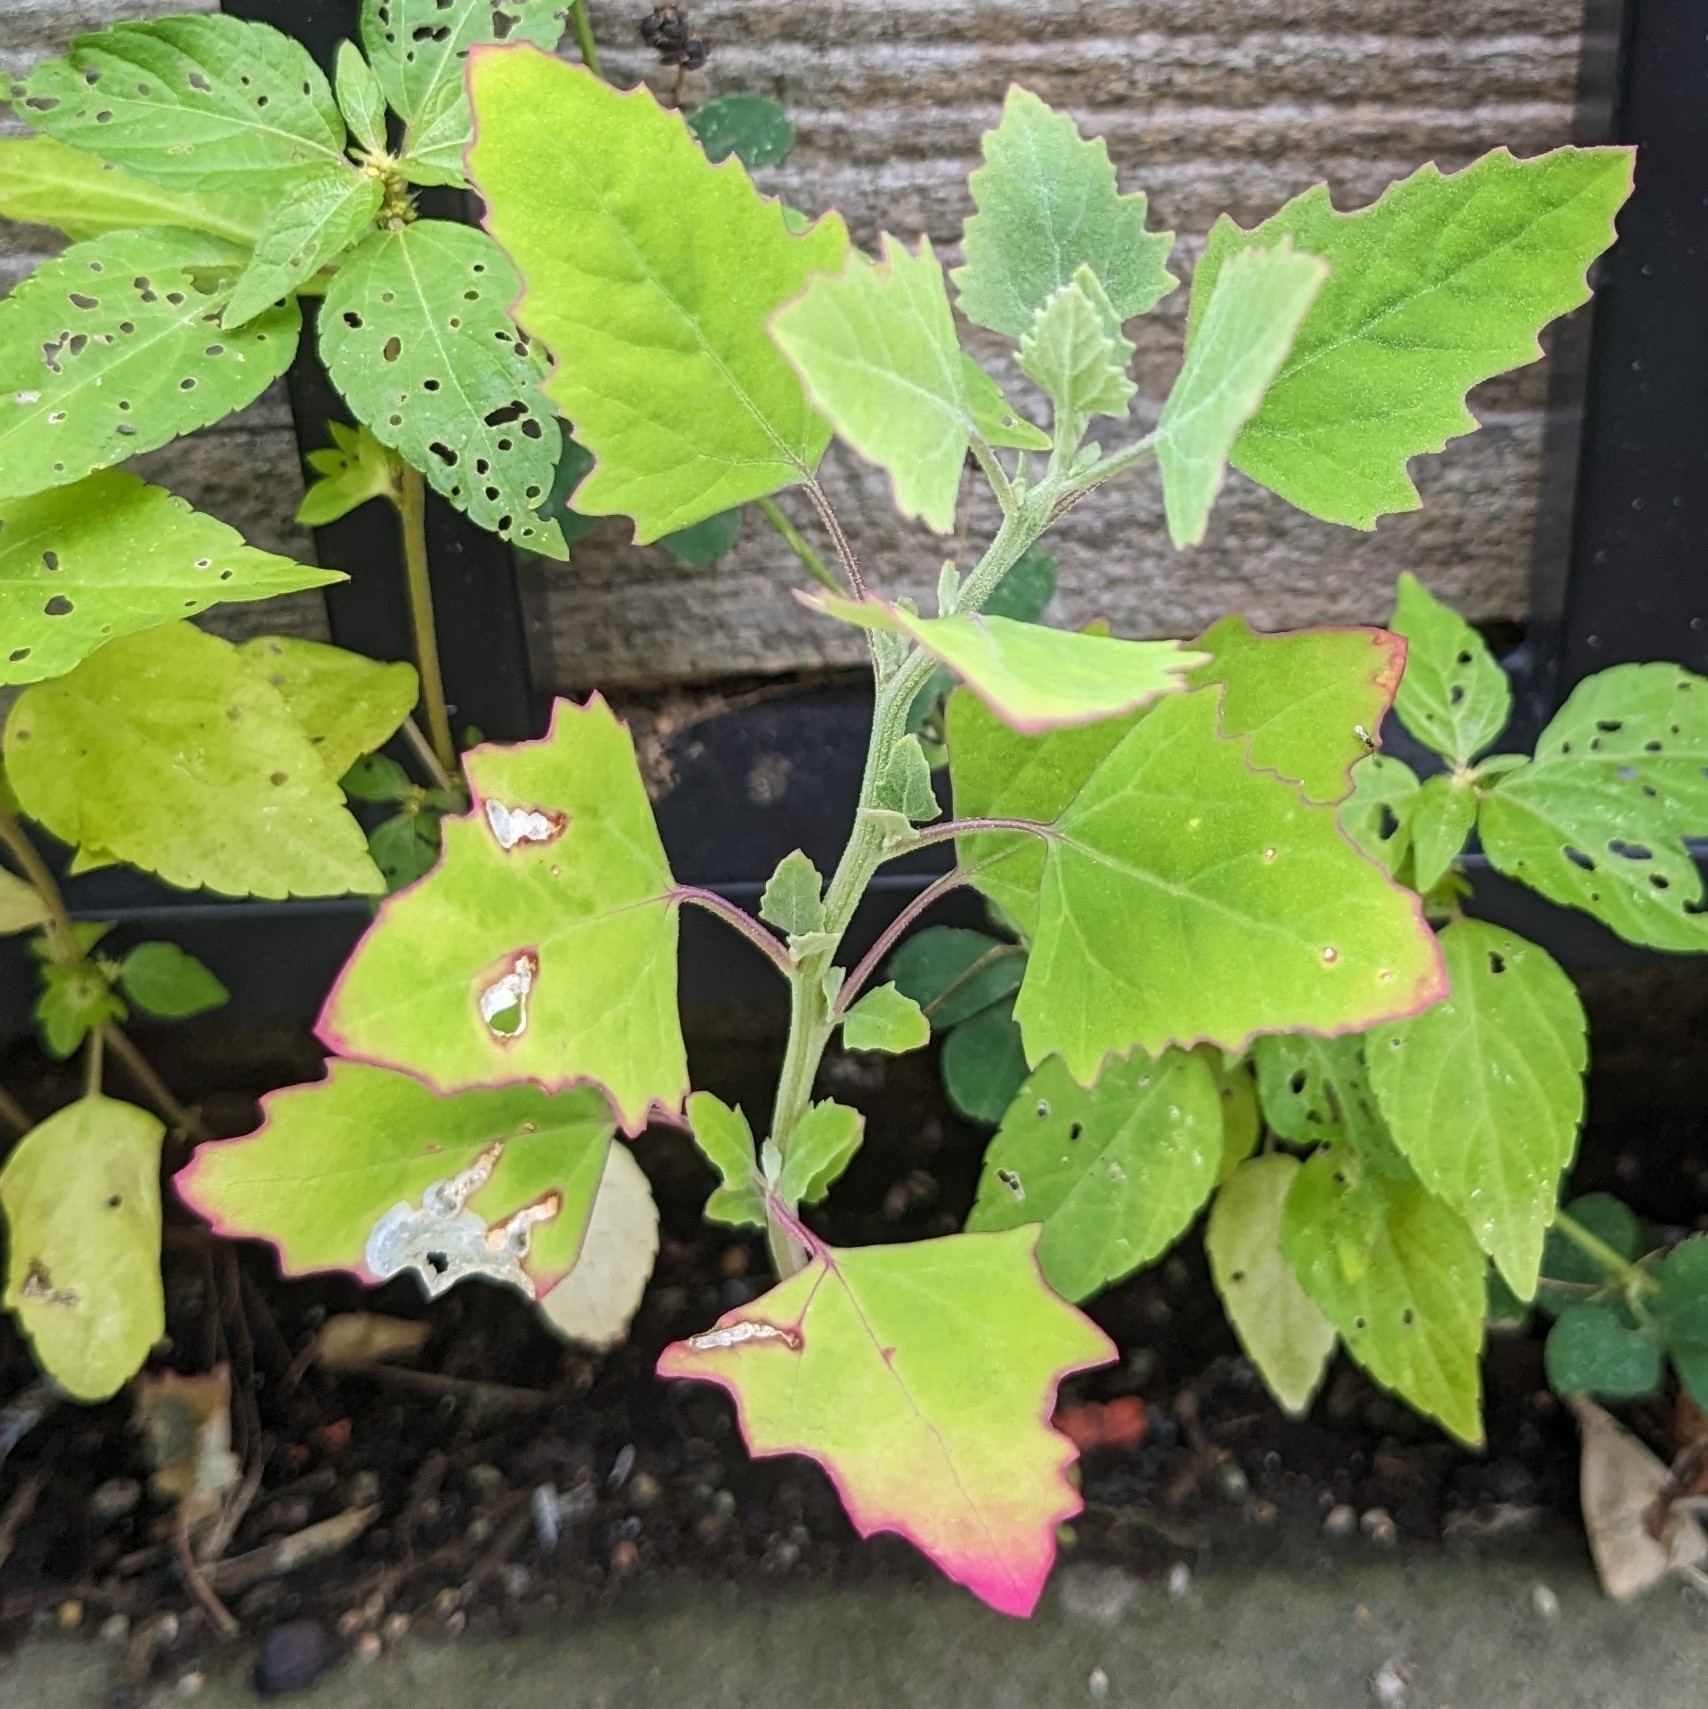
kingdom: Plantae
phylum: Tracheophyta
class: Magnoliopsida
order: Caryophyllales
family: Amaranthaceae
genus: Chenopodium
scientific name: Chenopodium album
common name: Fat-hen
